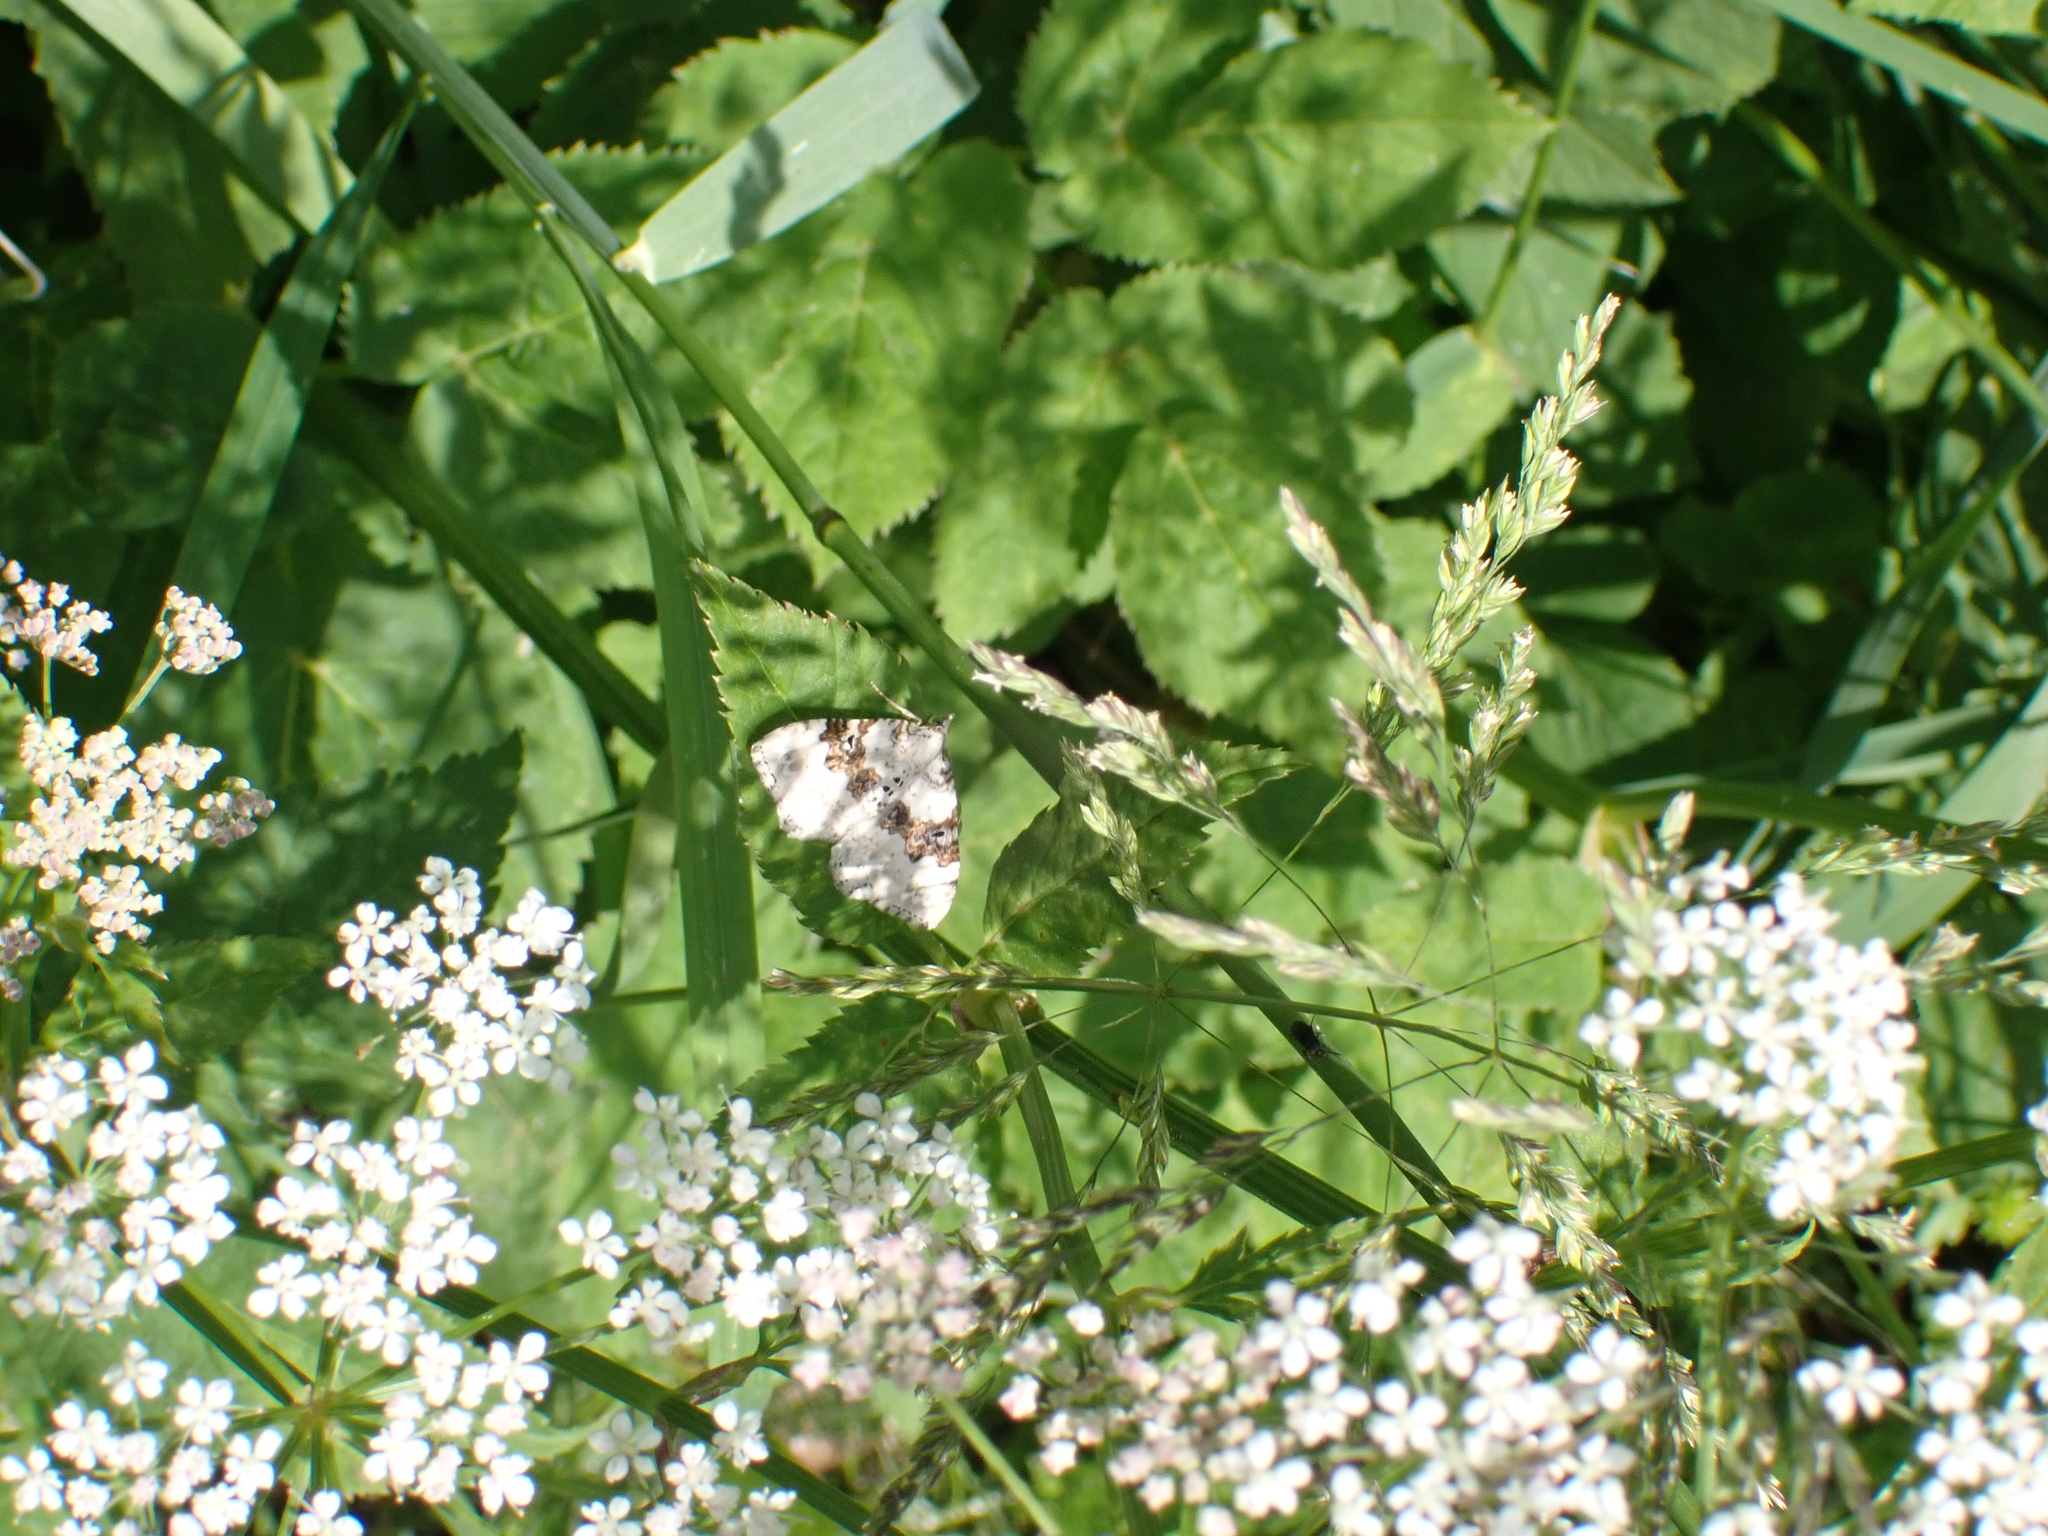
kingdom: Animalia
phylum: Arthropoda
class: Insecta
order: Lepidoptera
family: Geometridae
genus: Xanthorhoe
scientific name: Xanthorhoe montanata
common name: Silver-ground carpet
